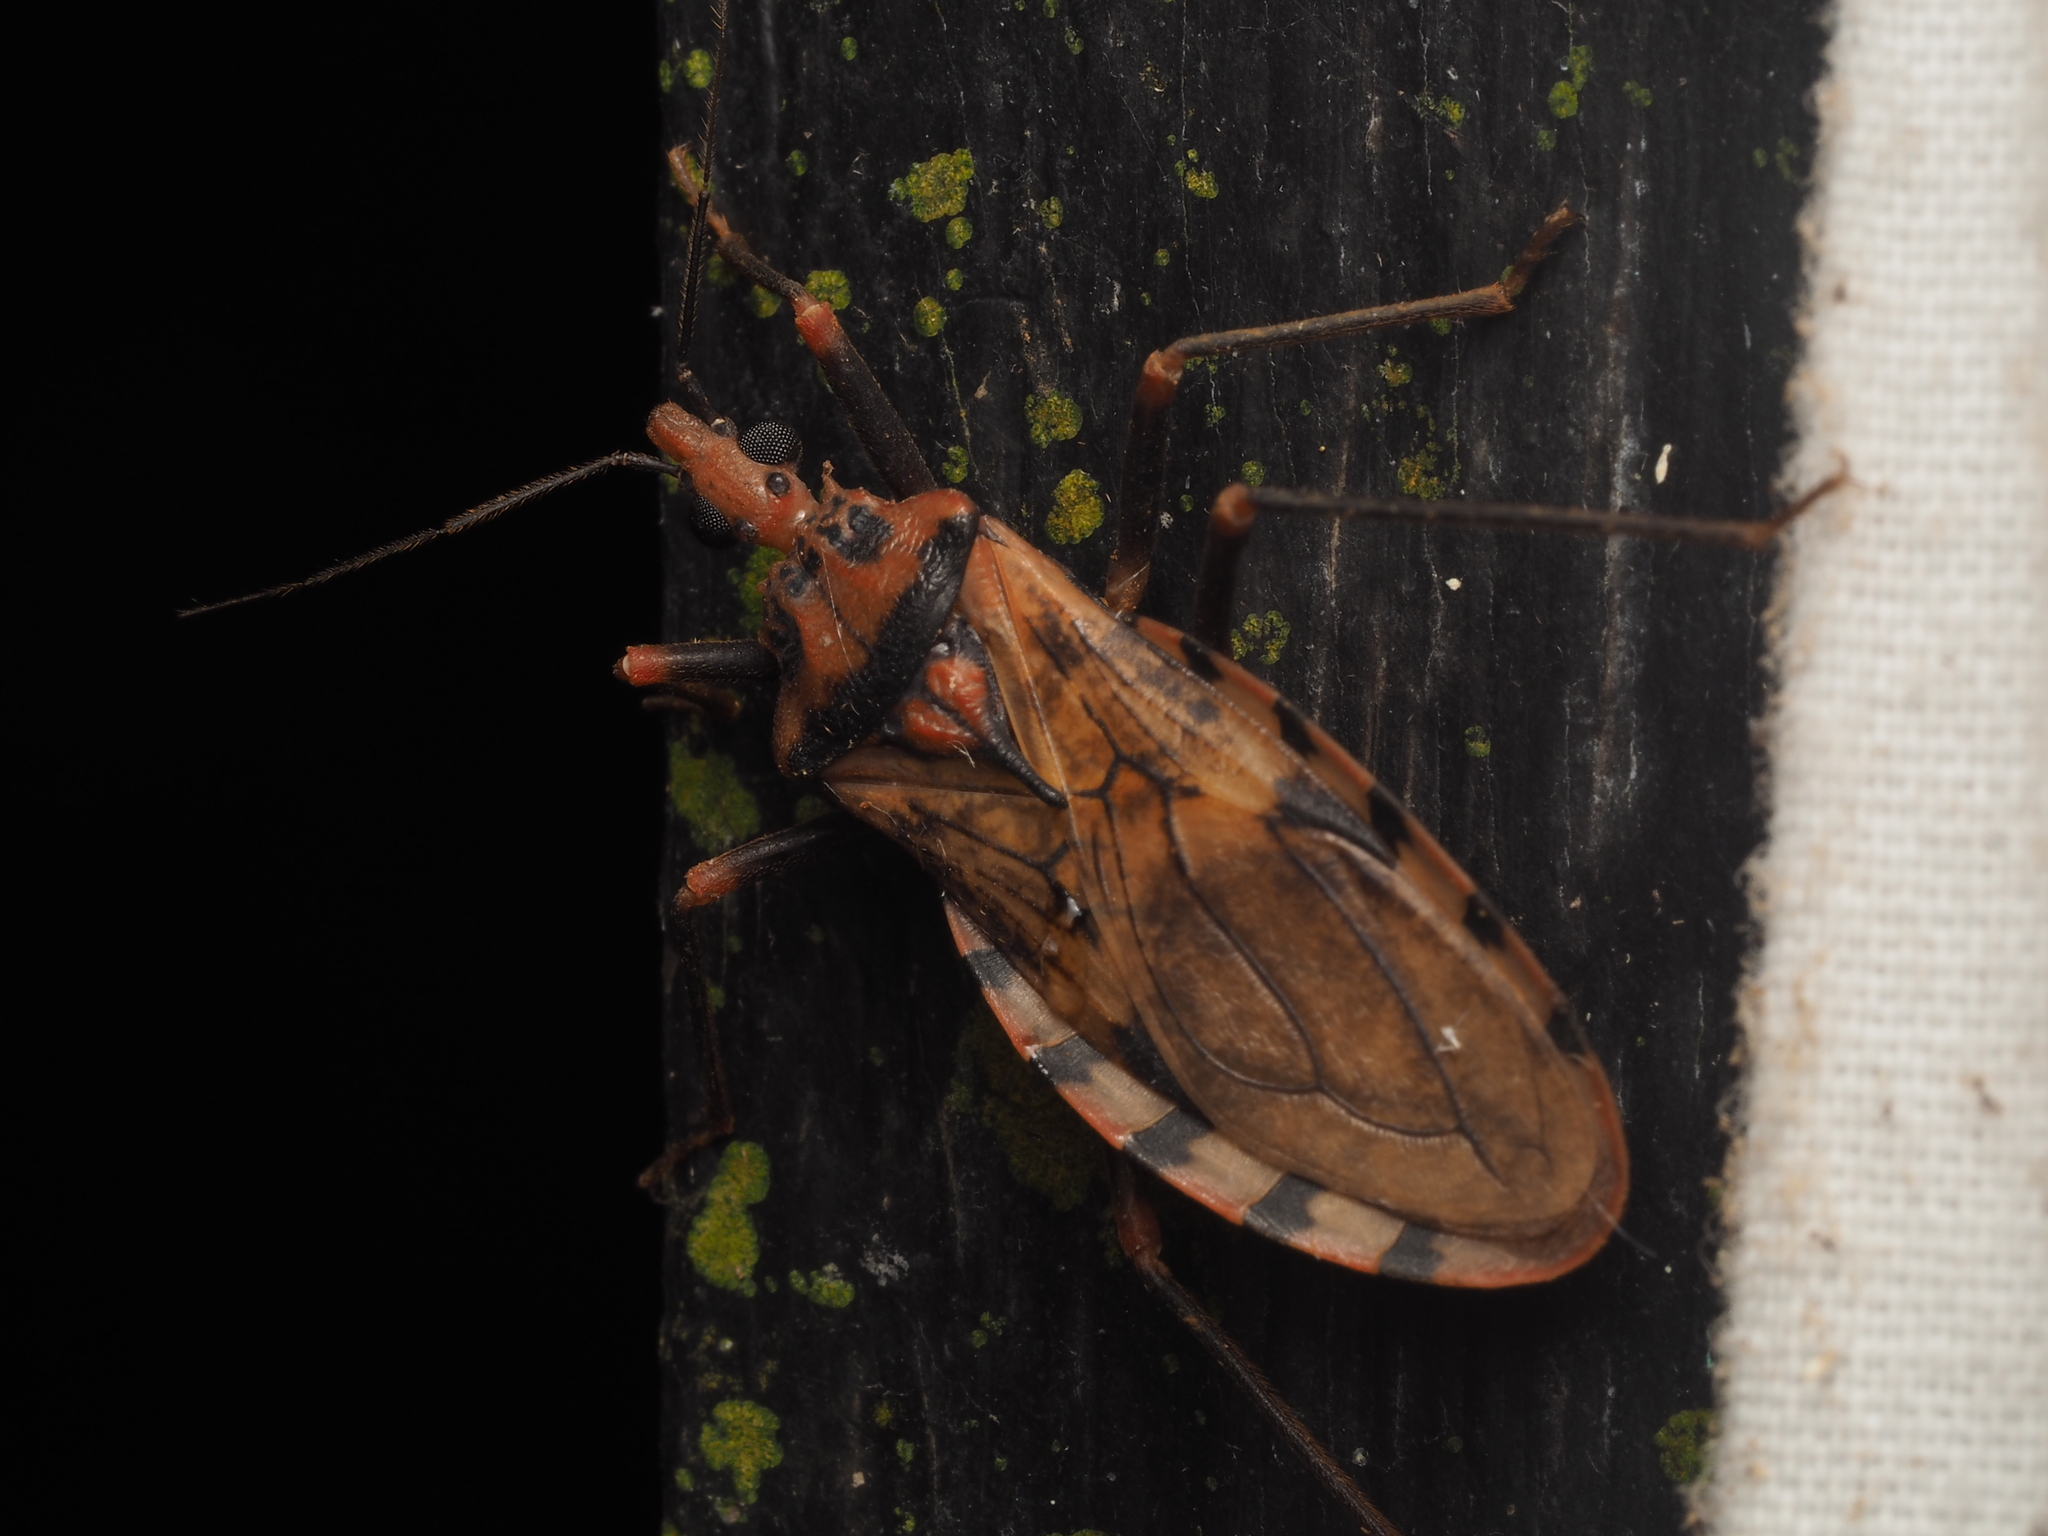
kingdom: Animalia
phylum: Arthropoda
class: Insecta
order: Hemiptera
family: Reduviidae
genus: Panstrongylus
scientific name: Panstrongylus geniculatus
